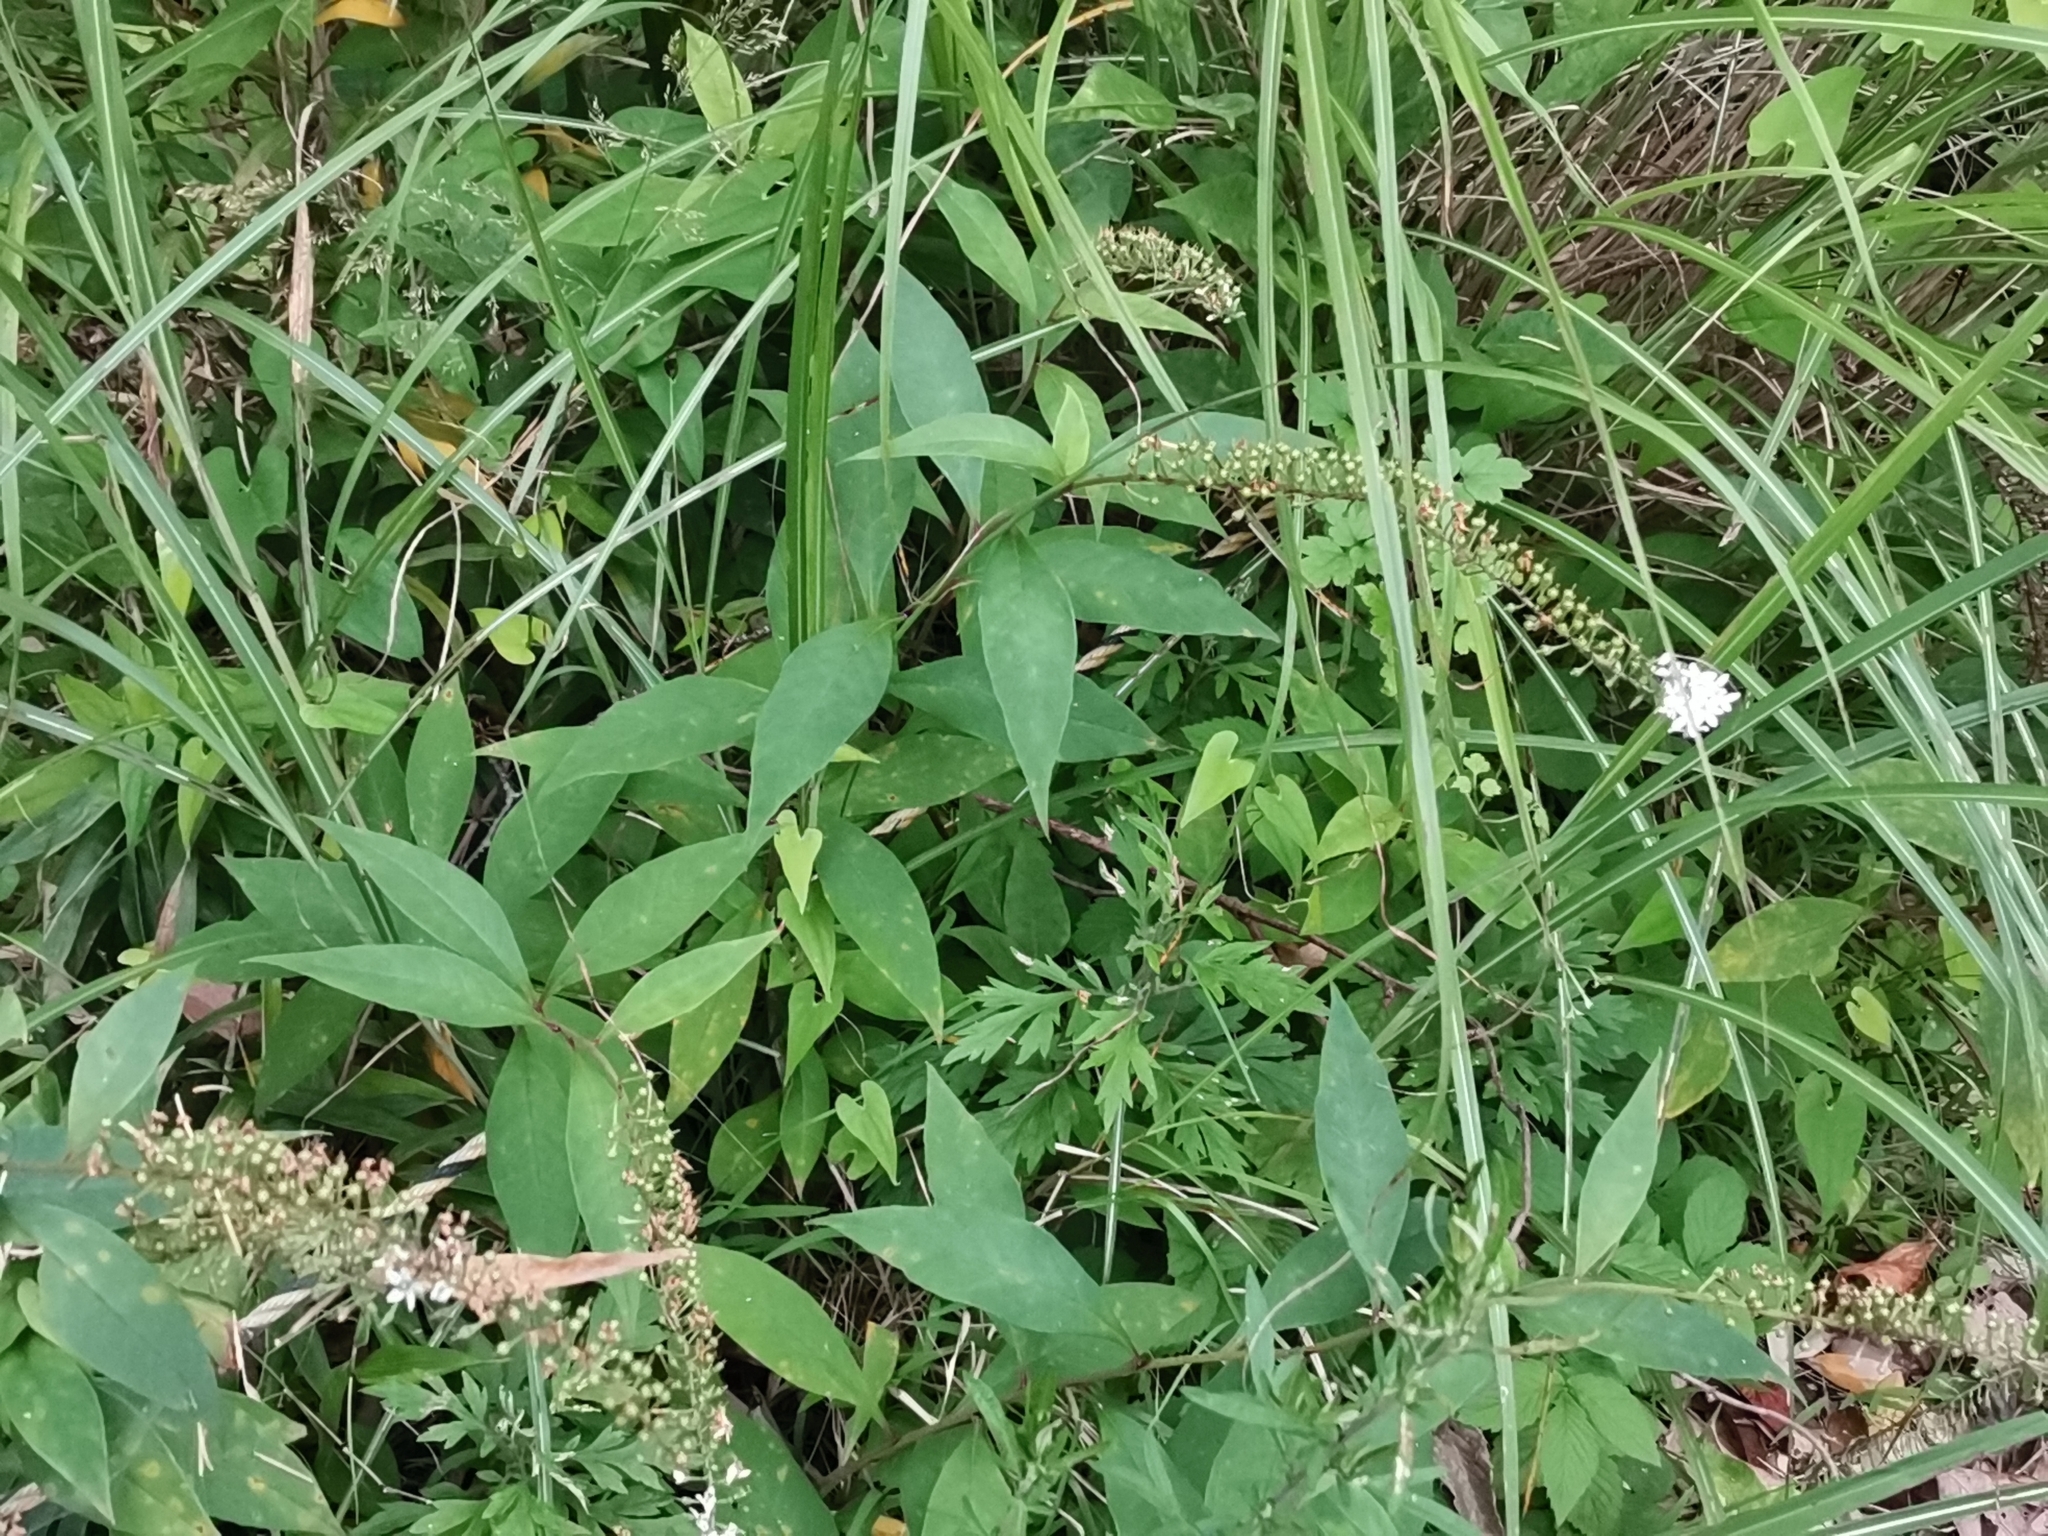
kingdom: Plantae
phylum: Tracheophyta
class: Magnoliopsida
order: Ericales
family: Primulaceae
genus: Lysimachia
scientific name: Lysimachia clethroides
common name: Gooseneck loosestrife
